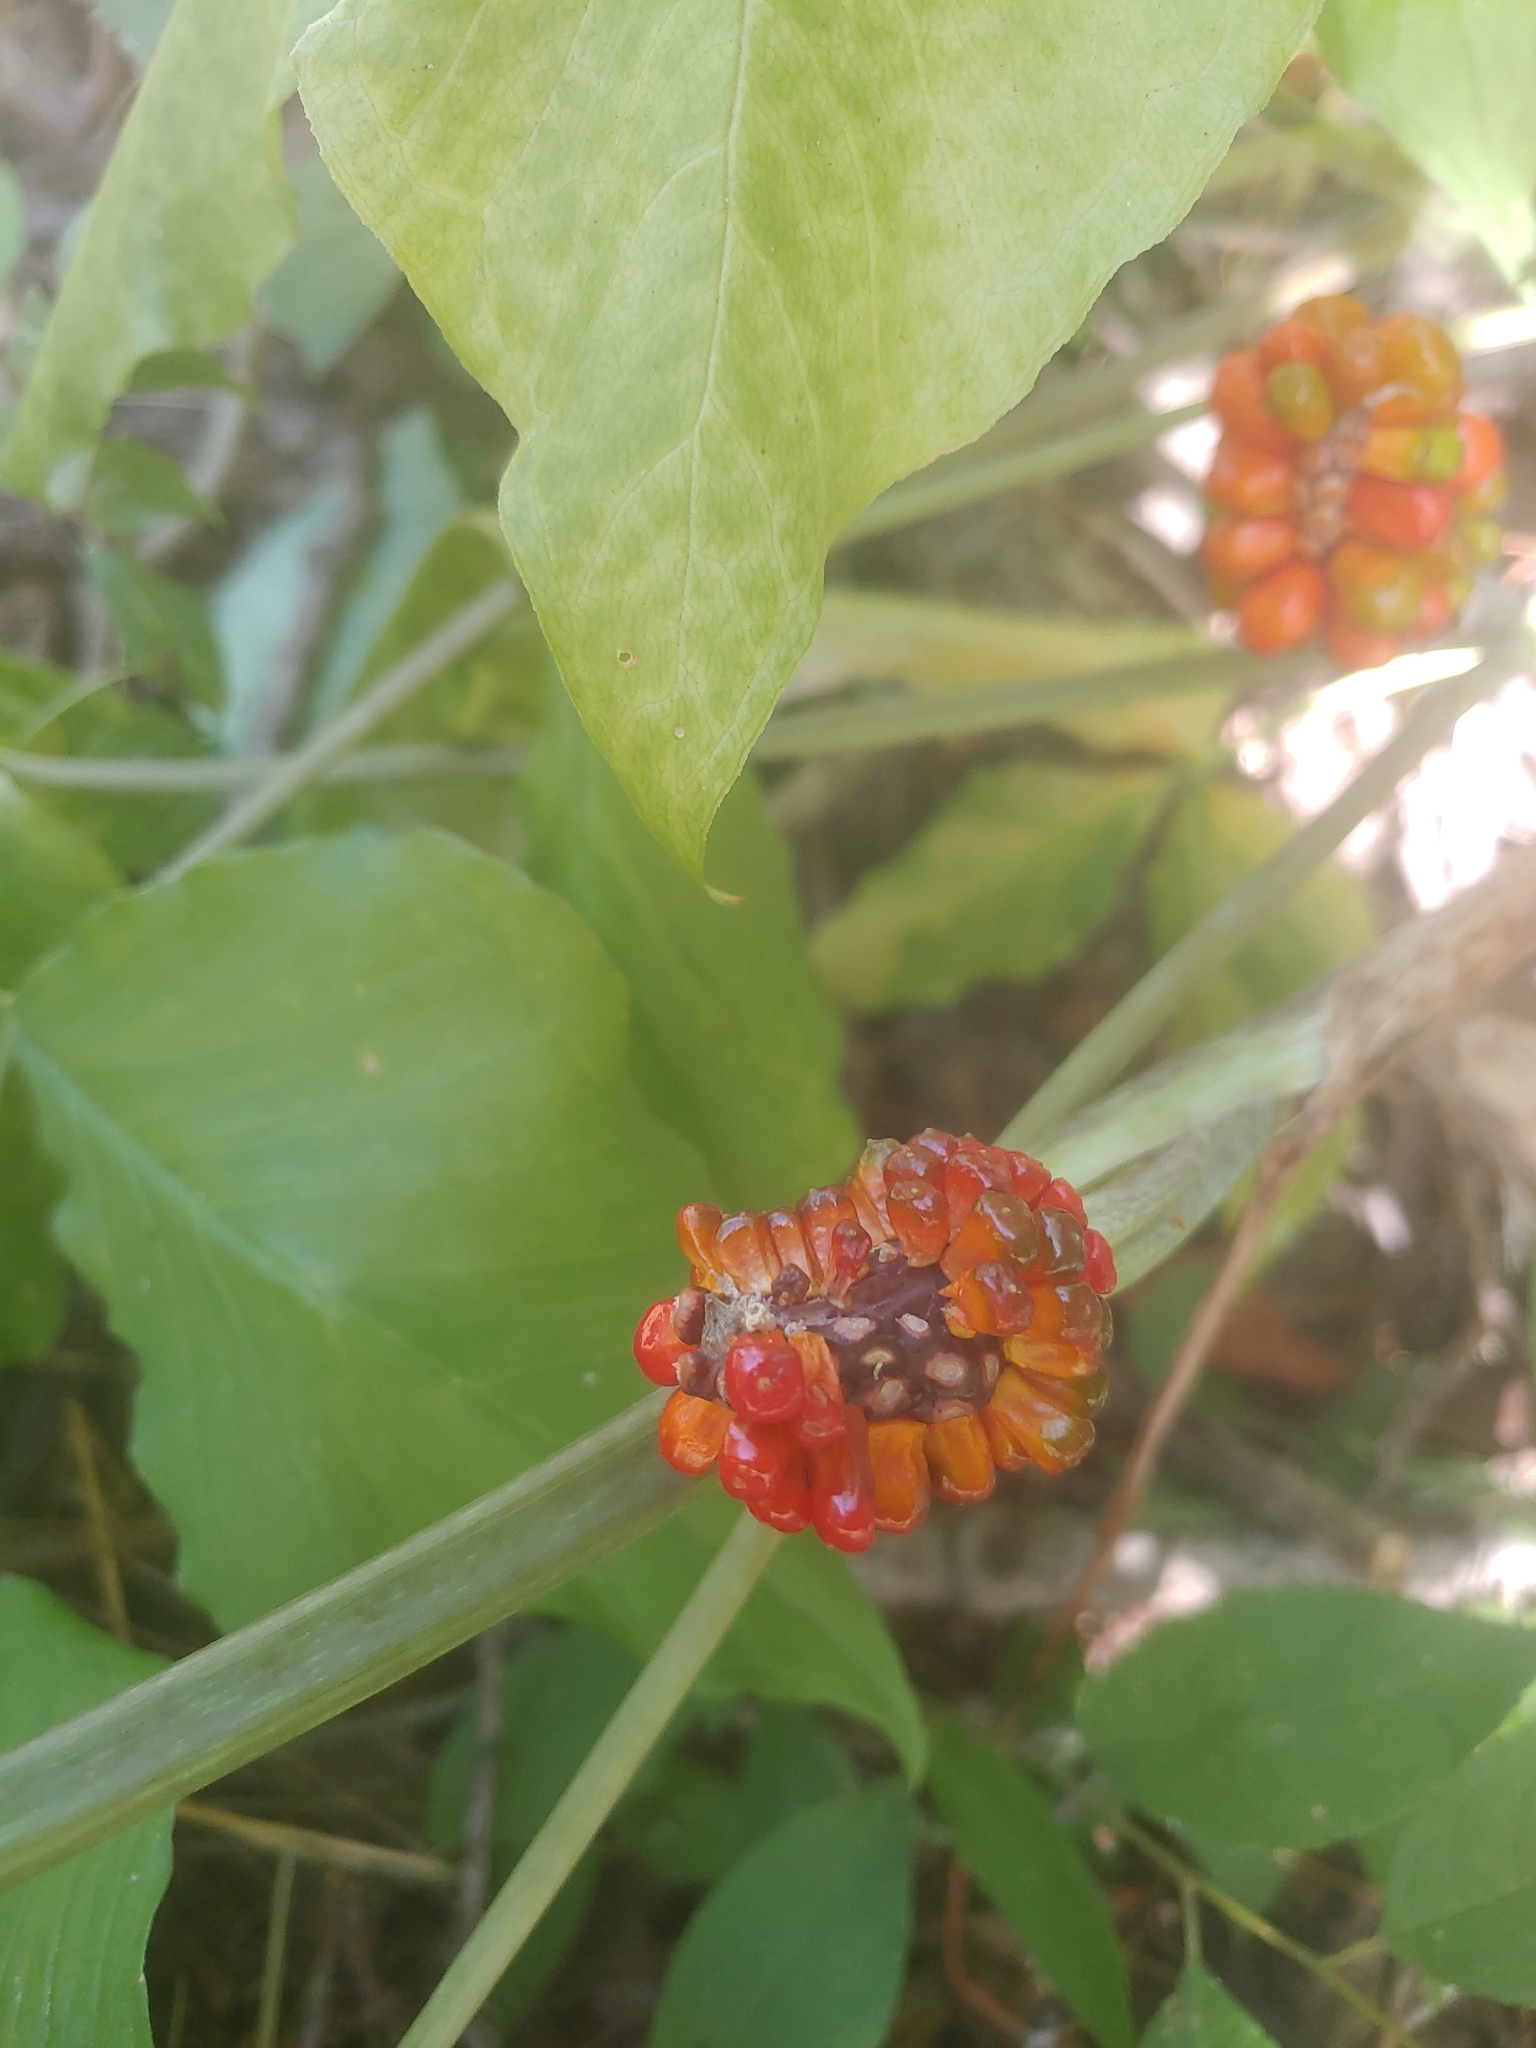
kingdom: Plantae
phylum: Tracheophyta
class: Liliopsida
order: Alismatales
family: Araceae
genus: Arisaema
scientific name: Arisaema triphyllum
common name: Jack-in-the-pulpit
